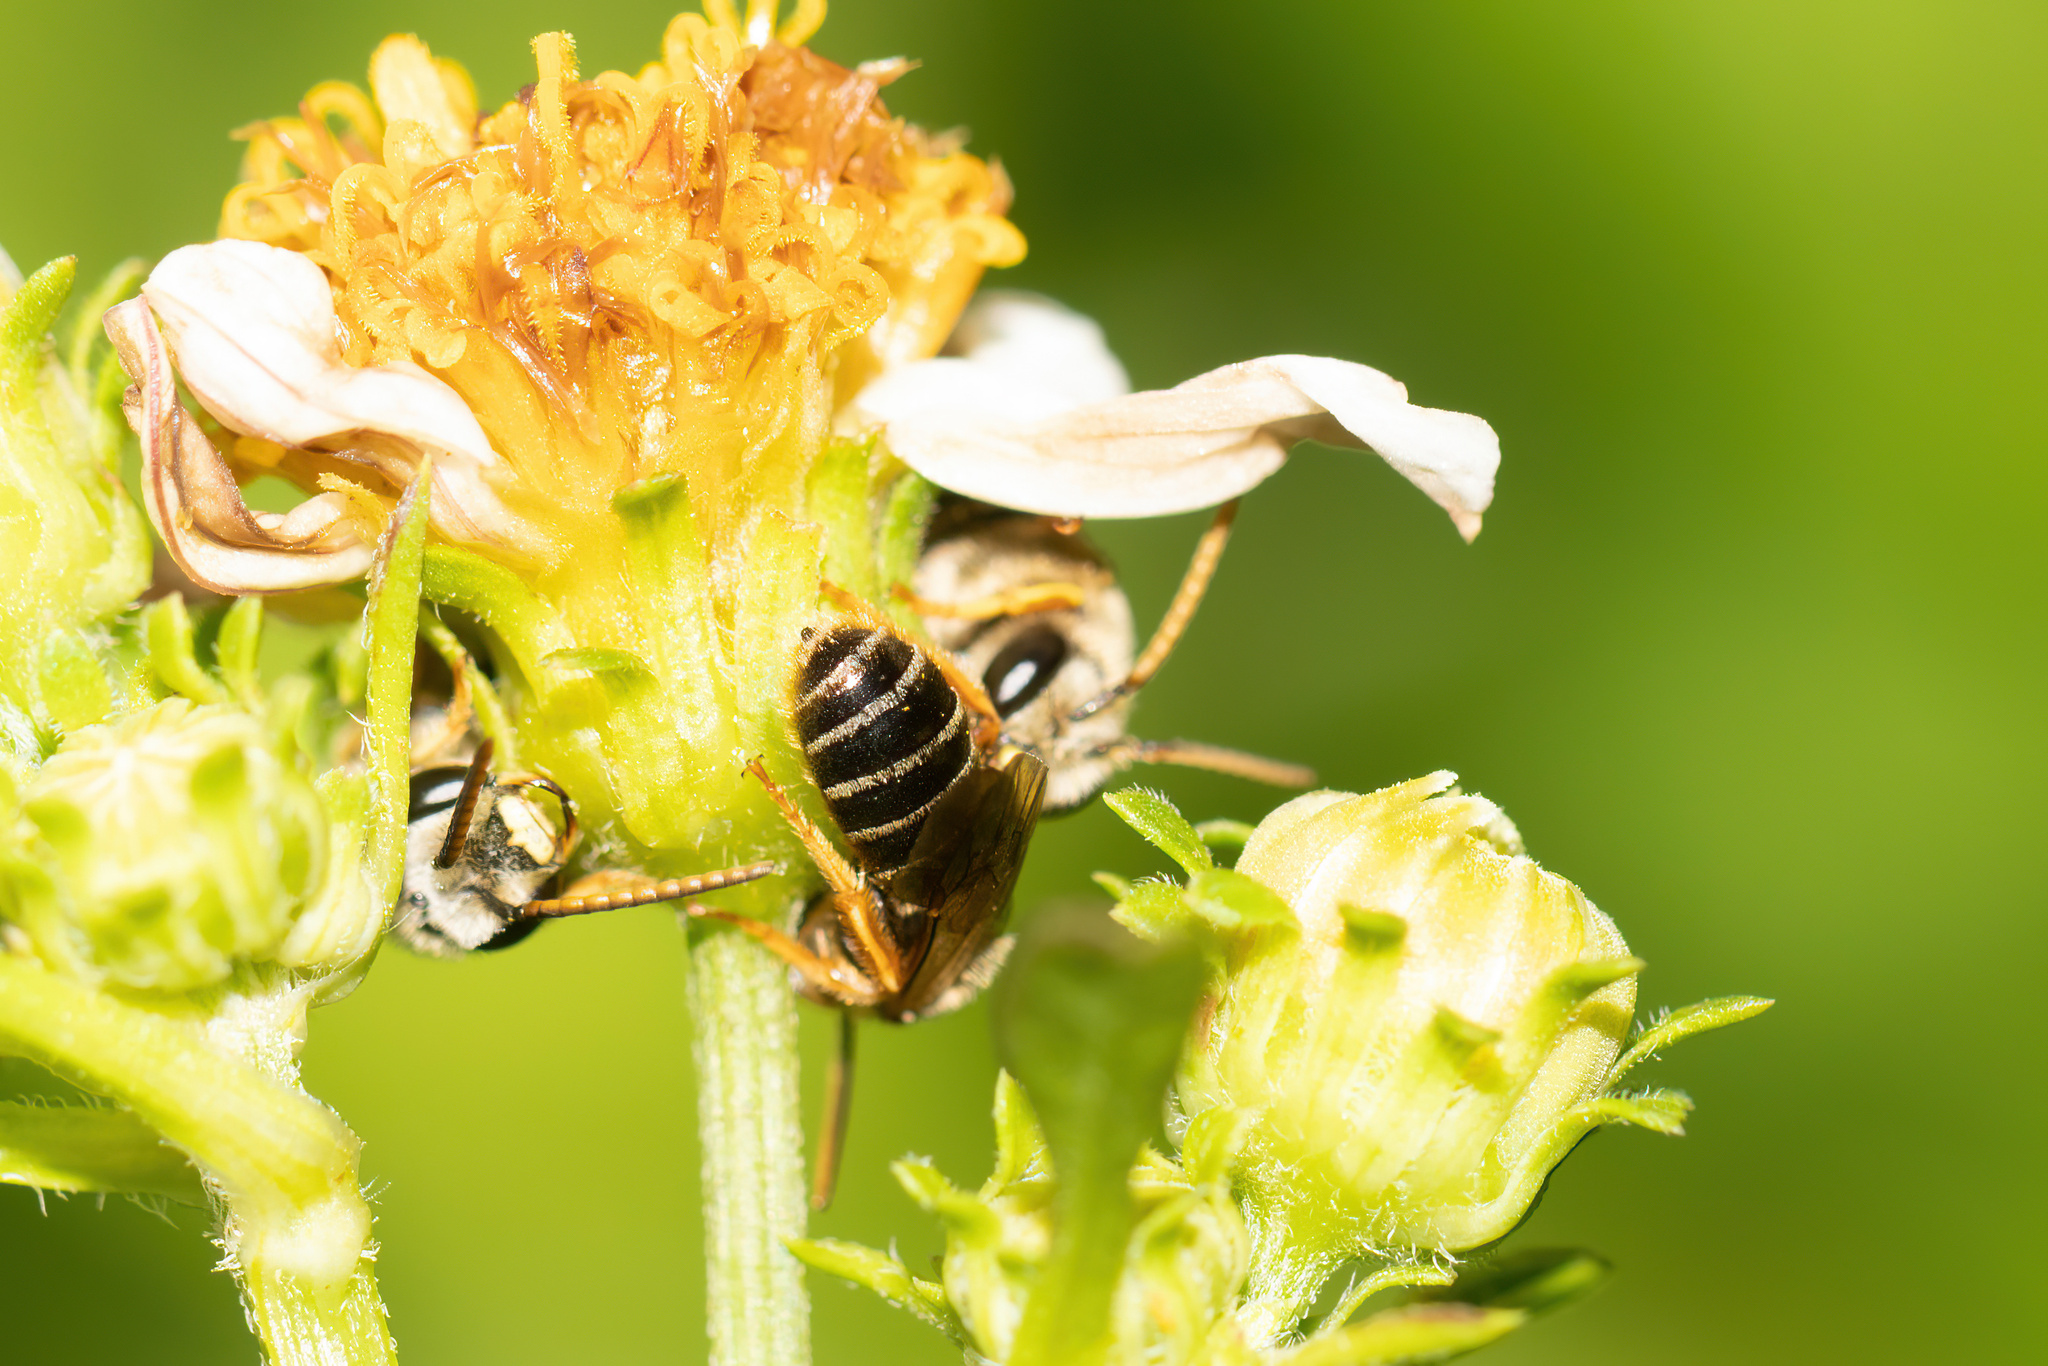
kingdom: Animalia
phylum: Arthropoda
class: Insecta
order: Hymenoptera
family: Halictidae
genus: Halictus
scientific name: Halictus poeyi
